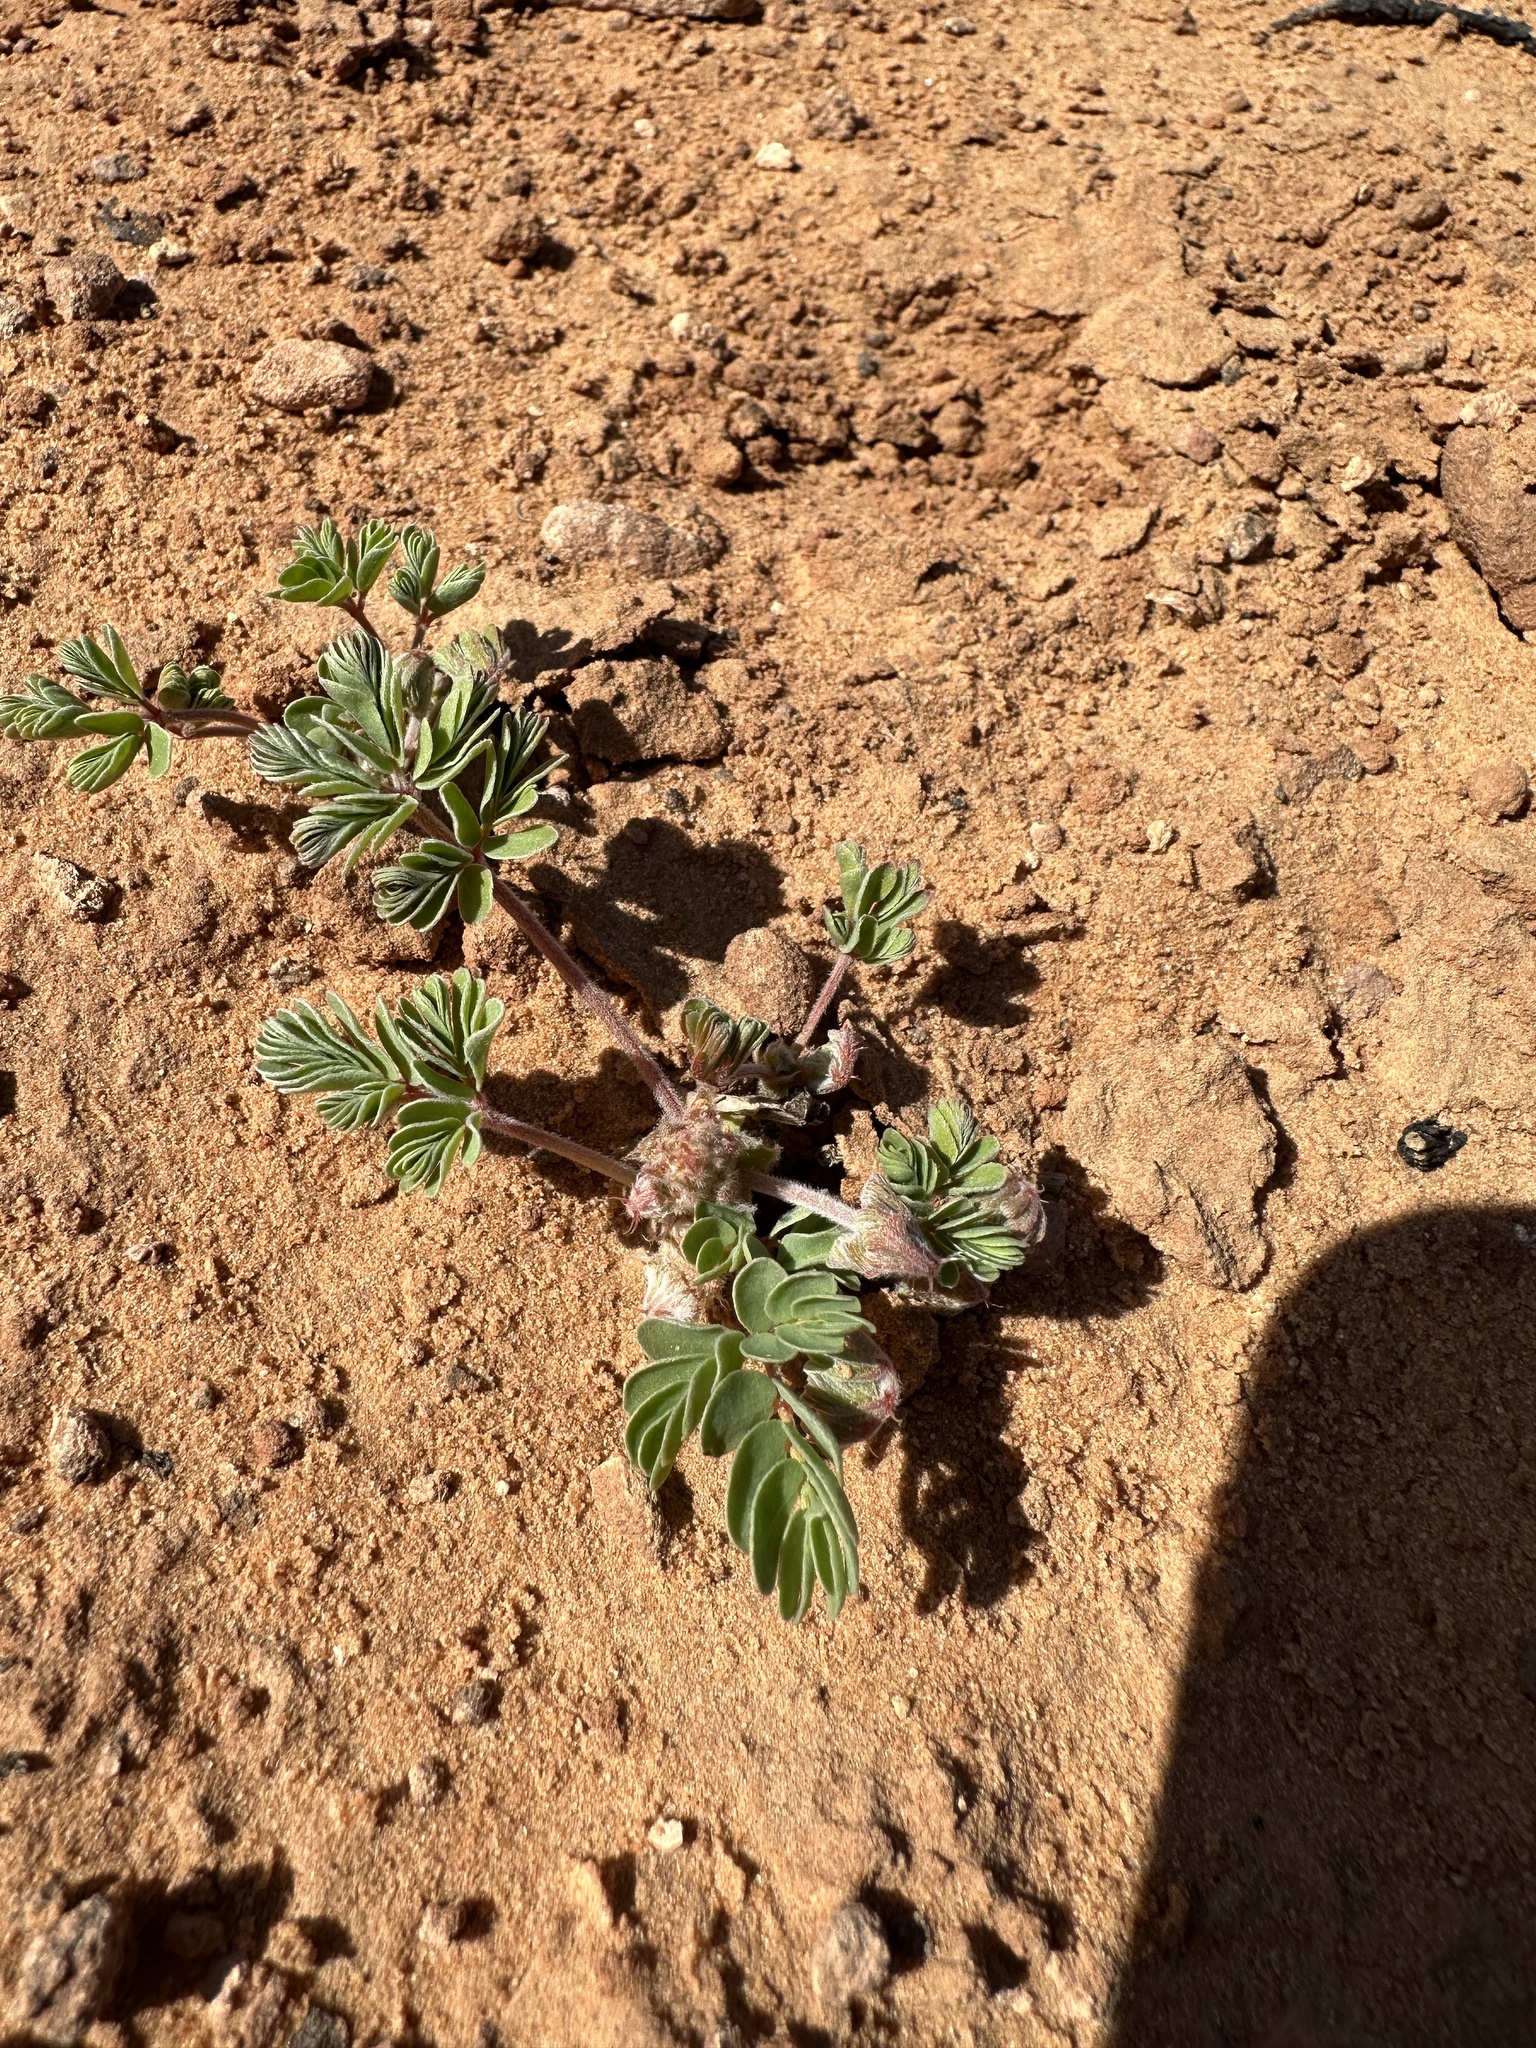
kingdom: Plantae
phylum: Tracheophyta
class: Magnoliopsida
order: Fabales
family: Fabaceae
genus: Hoffmannseggia
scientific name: Hoffmannseggia repens
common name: Creeping rush-pea
